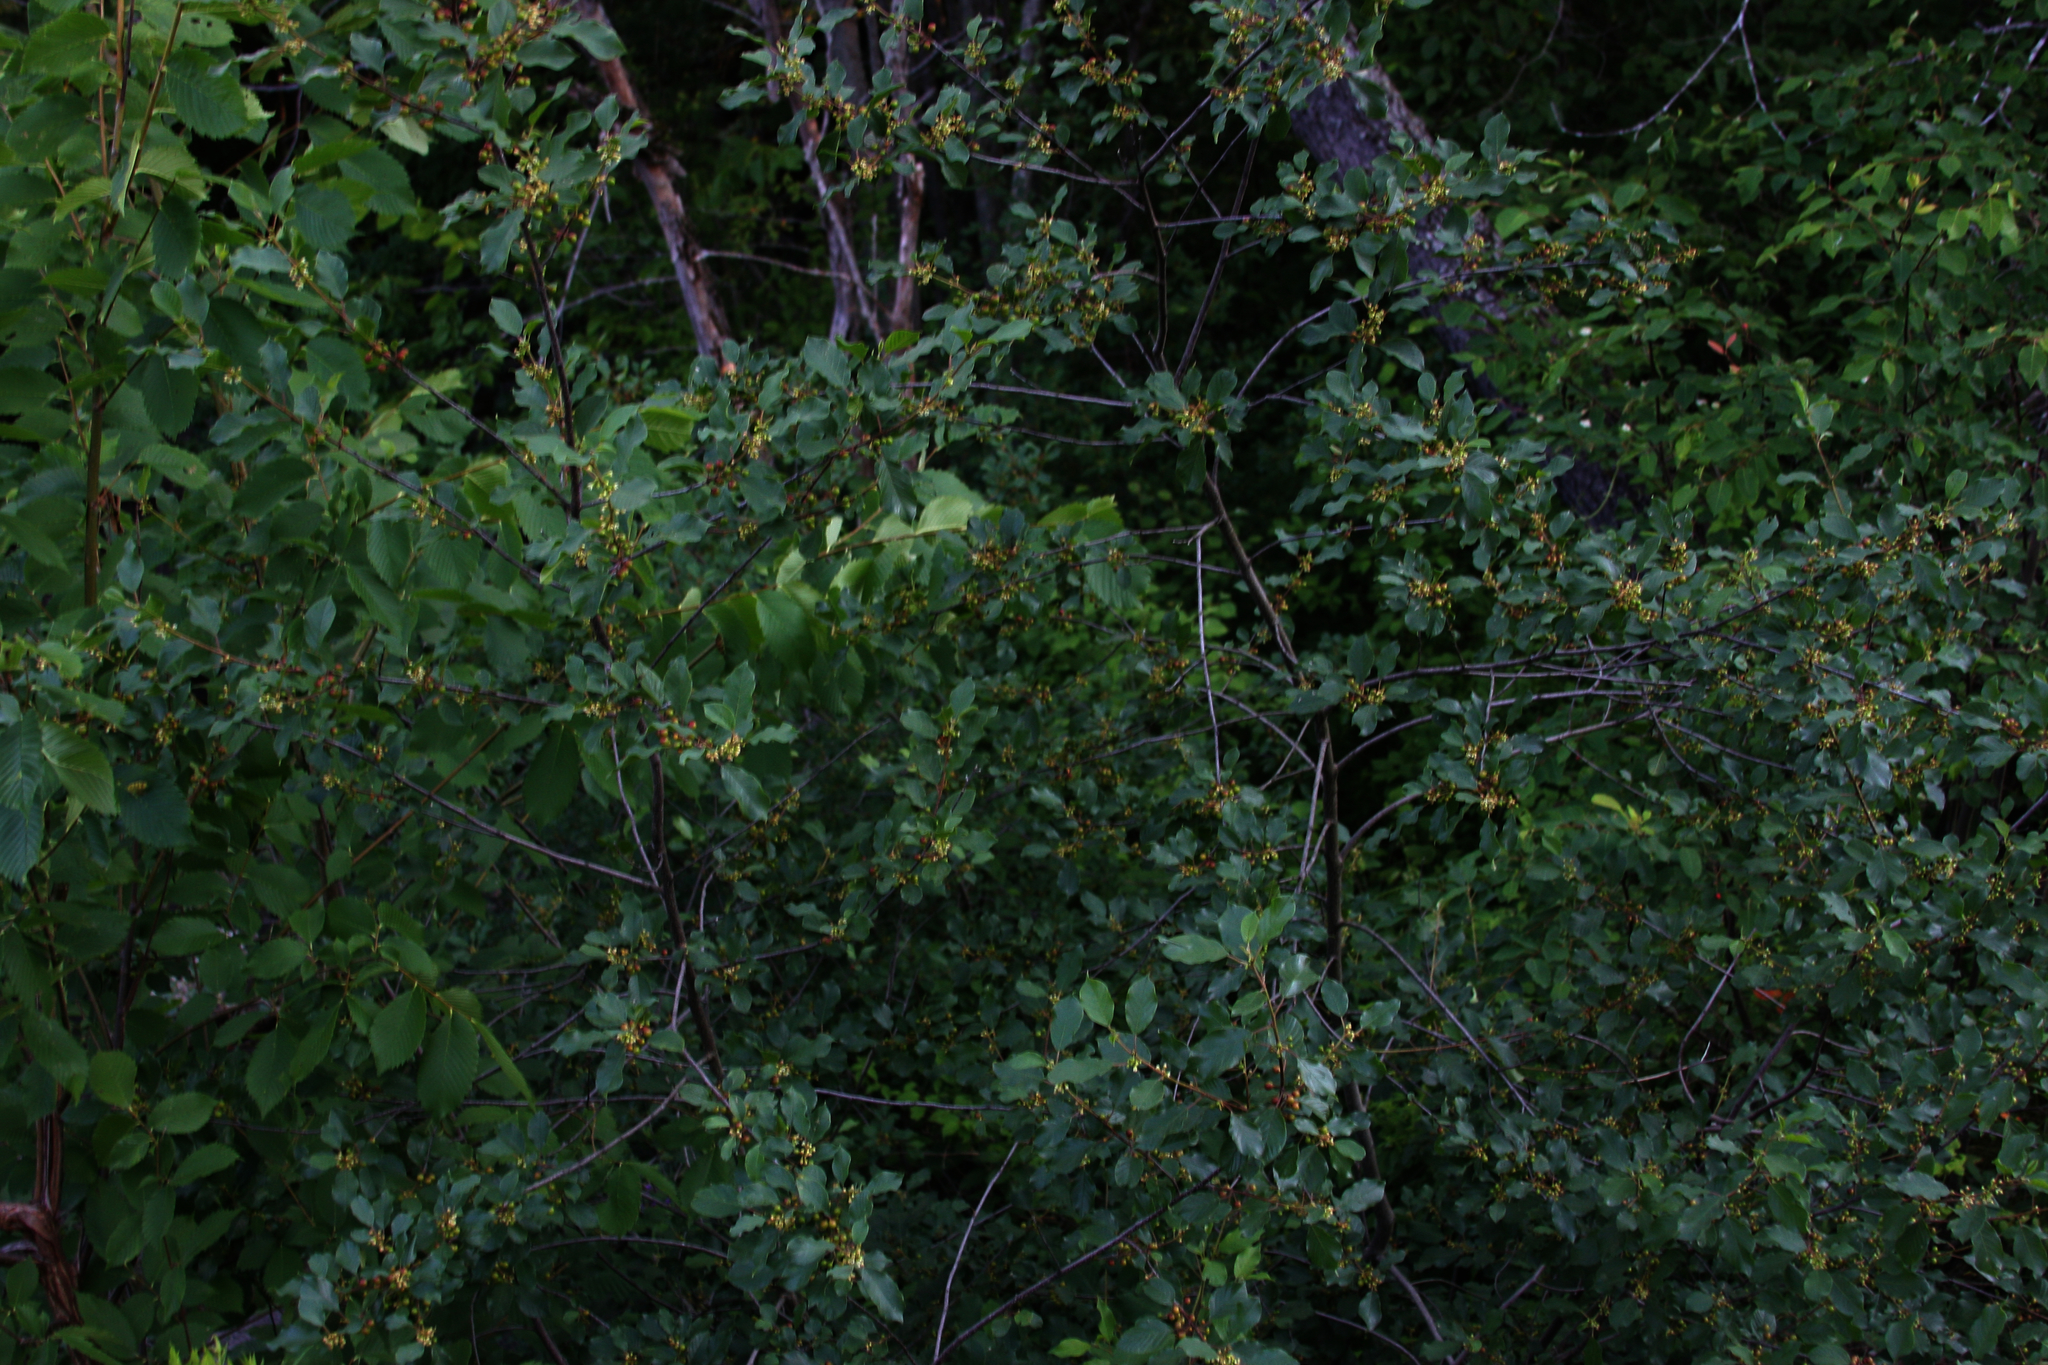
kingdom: Plantae
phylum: Tracheophyta
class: Magnoliopsida
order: Rosales
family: Rhamnaceae
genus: Frangula
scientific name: Frangula alnus
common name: Alder buckthorn
